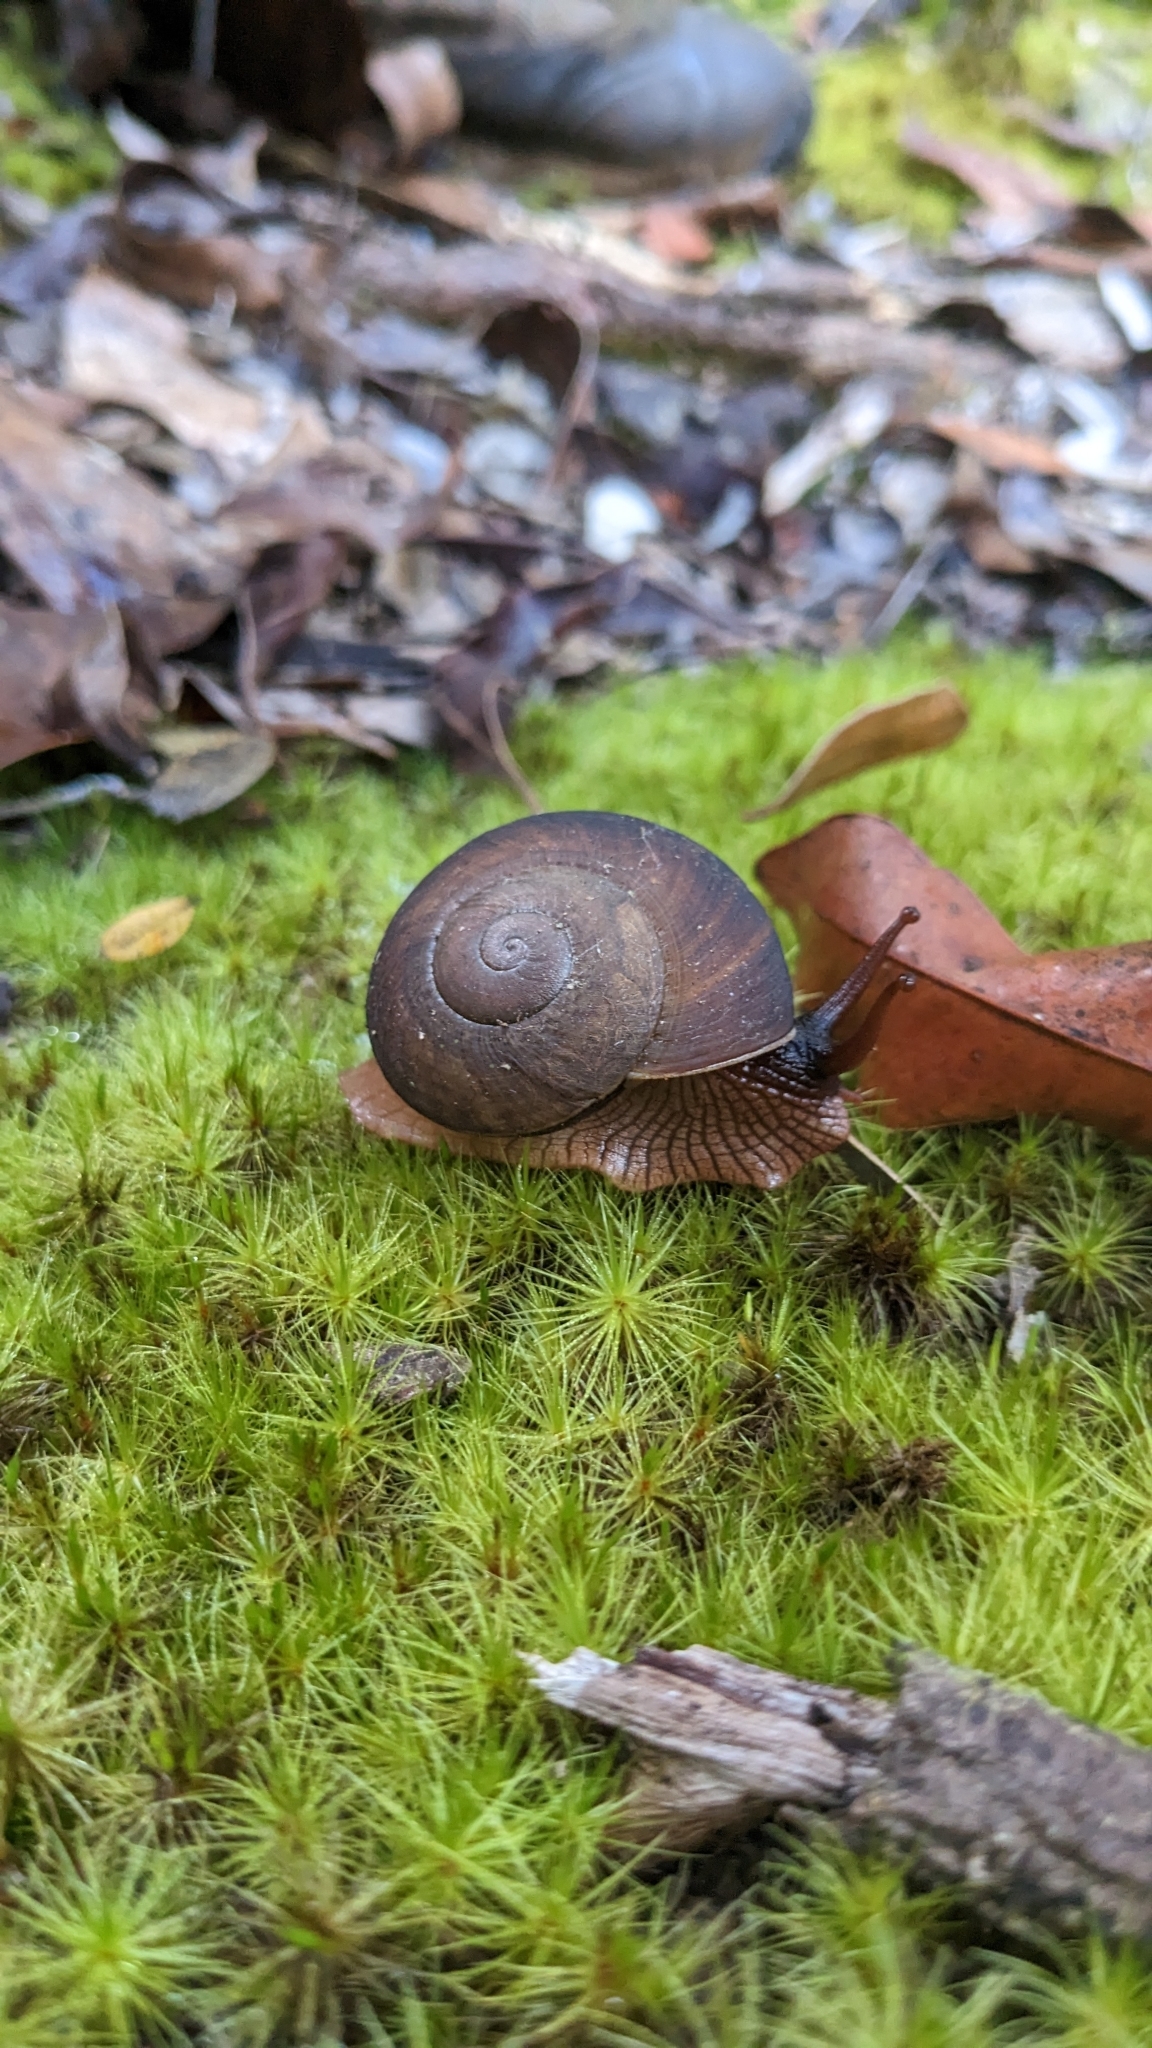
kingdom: Animalia
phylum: Mollusca
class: Gastropoda
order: Stylommatophora
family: Zachrysiidae
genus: Zachrysia
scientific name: Zachrysia provisoria
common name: Garden zachrysia
